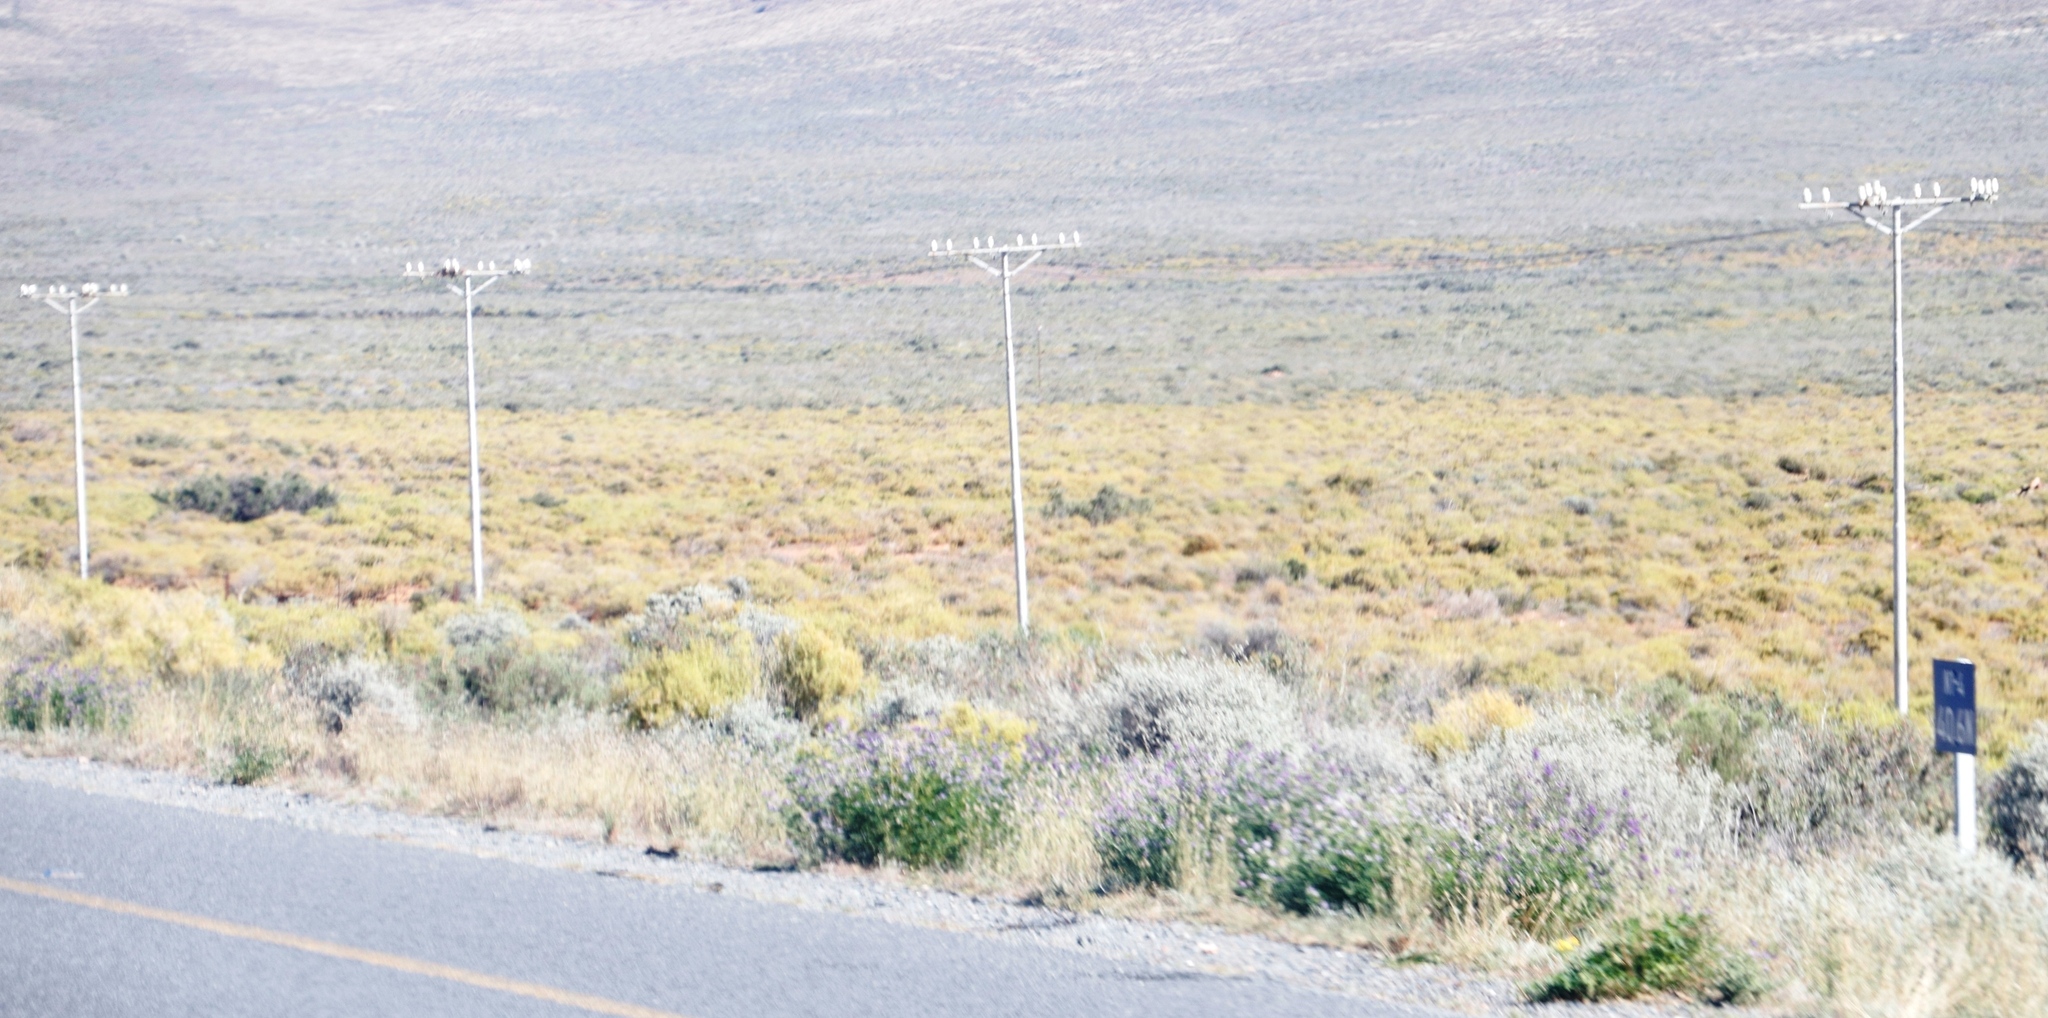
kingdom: Plantae
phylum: Tracheophyta
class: Magnoliopsida
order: Caryophyllales
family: Aizoaceae
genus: Aizoon
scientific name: Aizoon africanum
